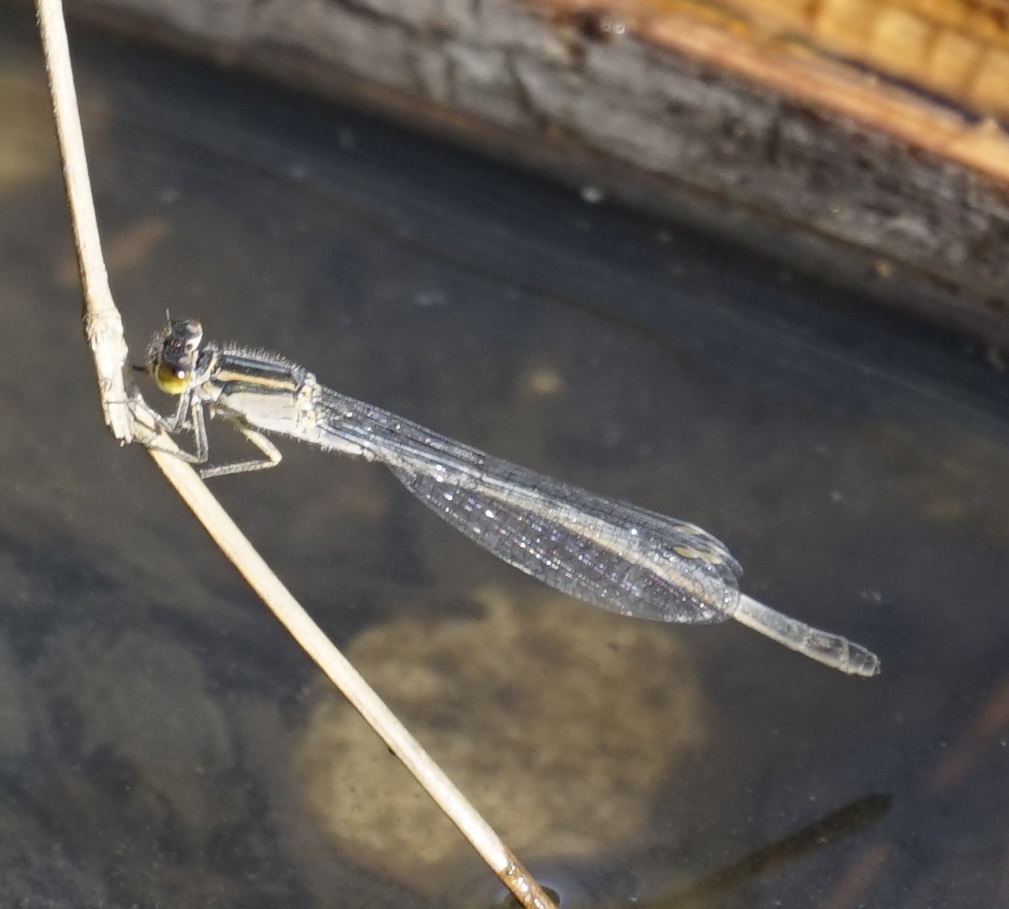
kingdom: Animalia
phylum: Arthropoda
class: Insecta
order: Odonata
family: Coenagrionidae
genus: Ischnura
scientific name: Ischnura heterosticta
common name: Common bluetail
